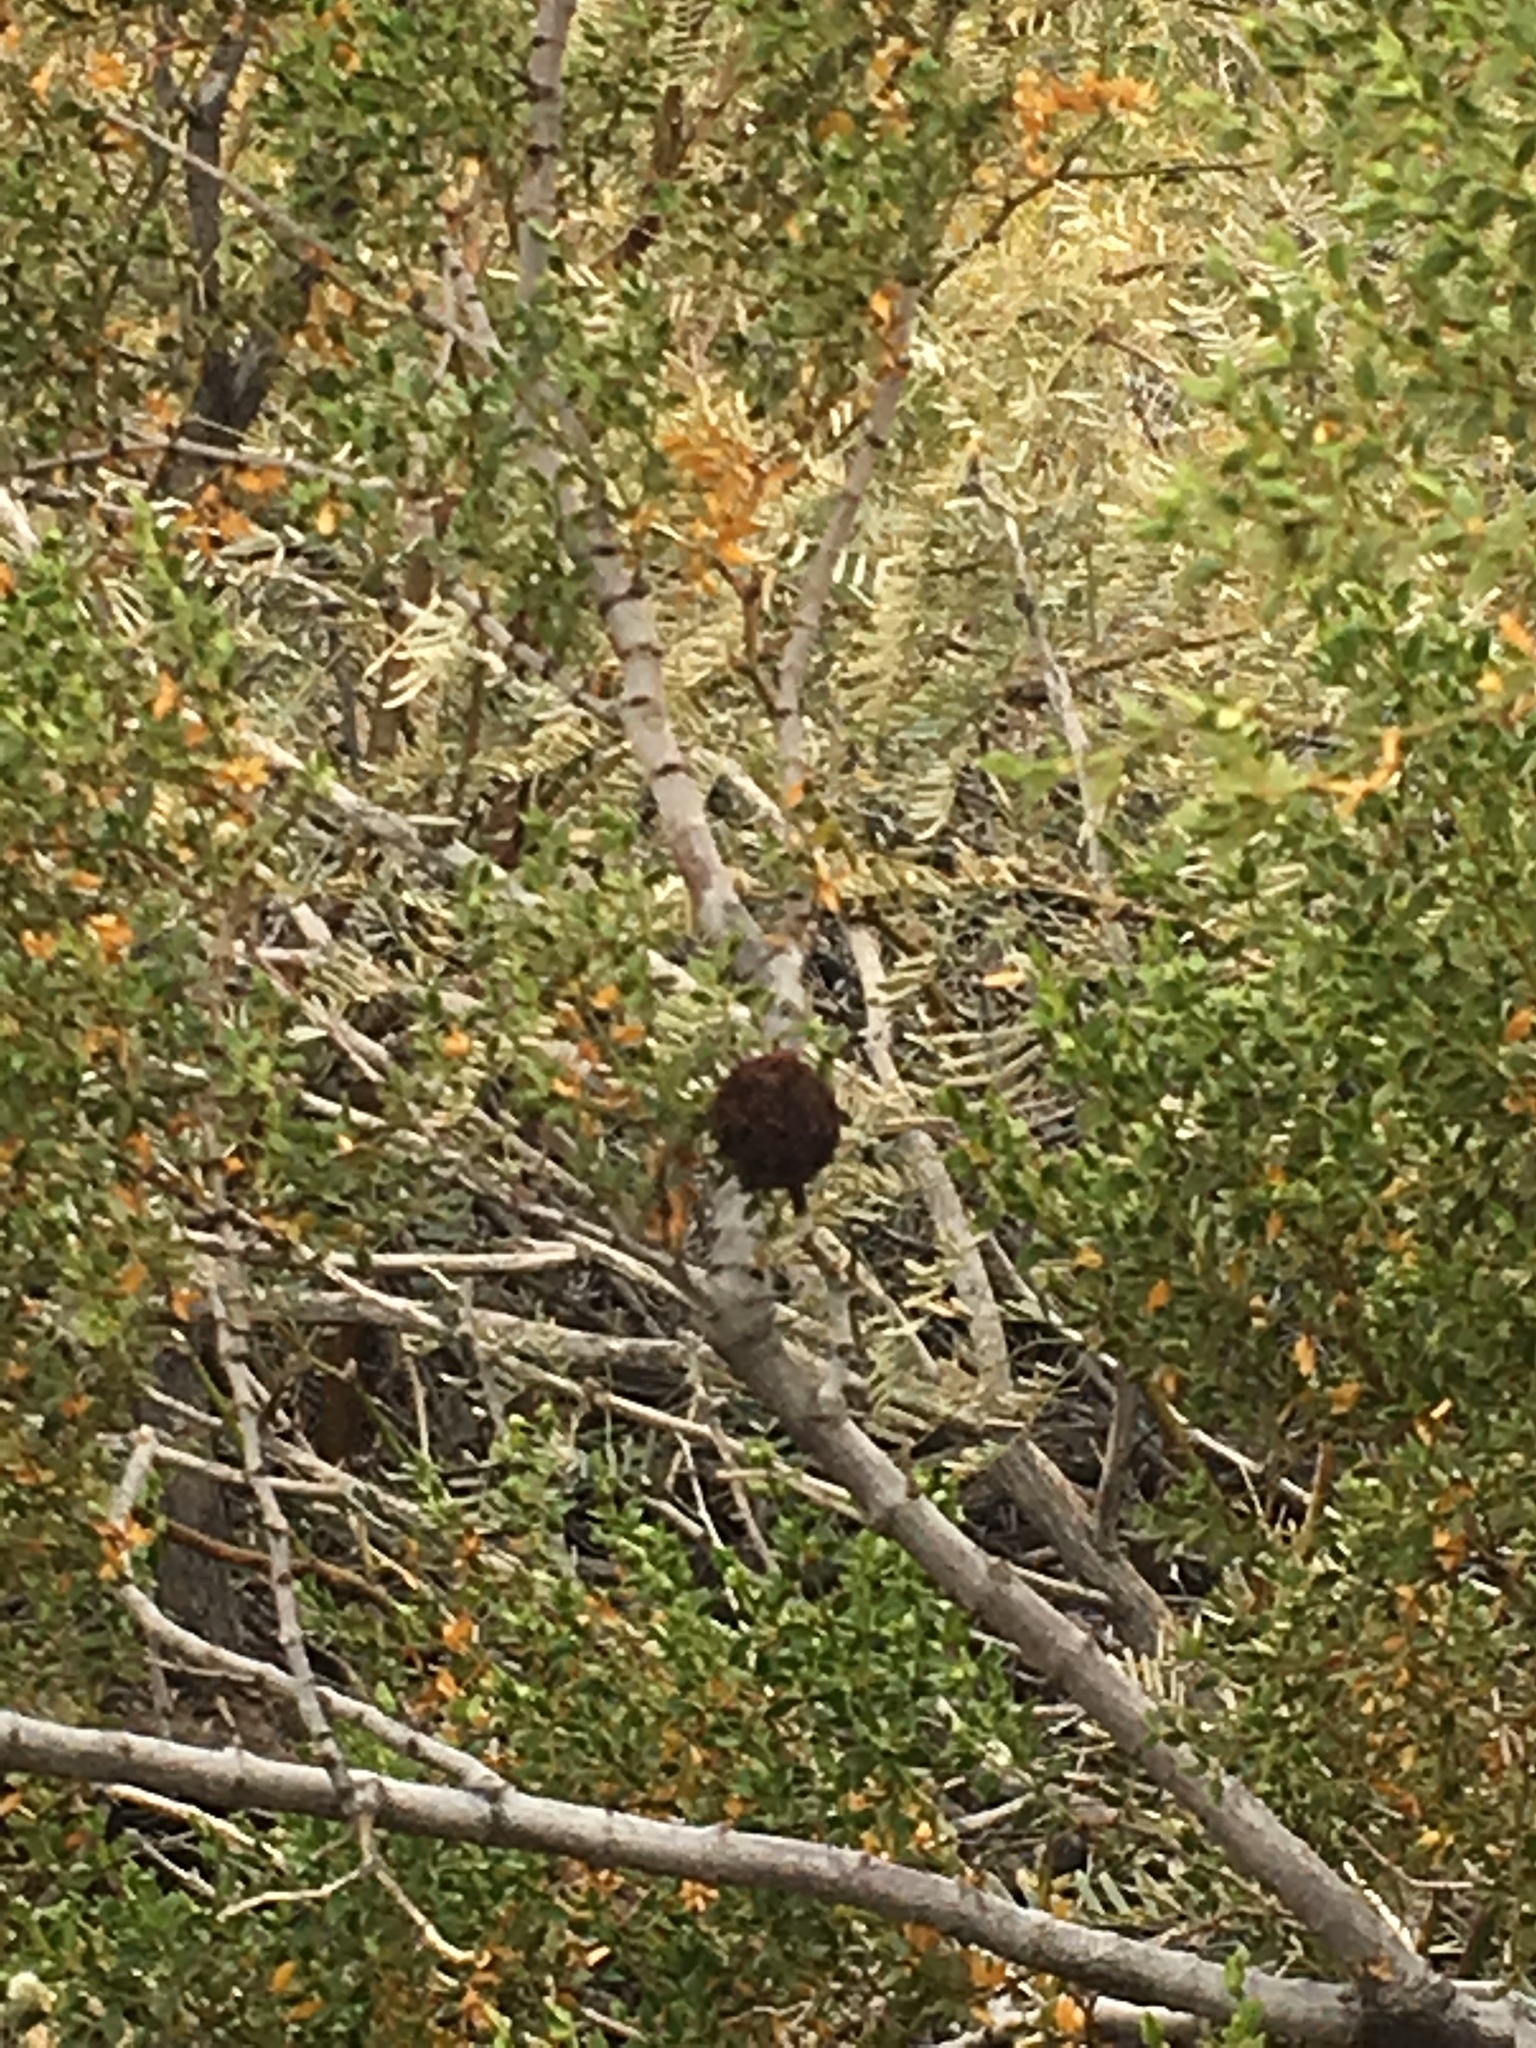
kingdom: Plantae
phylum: Tracheophyta
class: Magnoliopsida
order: Zygophyllales
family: Zygophyllaceae
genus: Larrea
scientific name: Larrea tridentata
